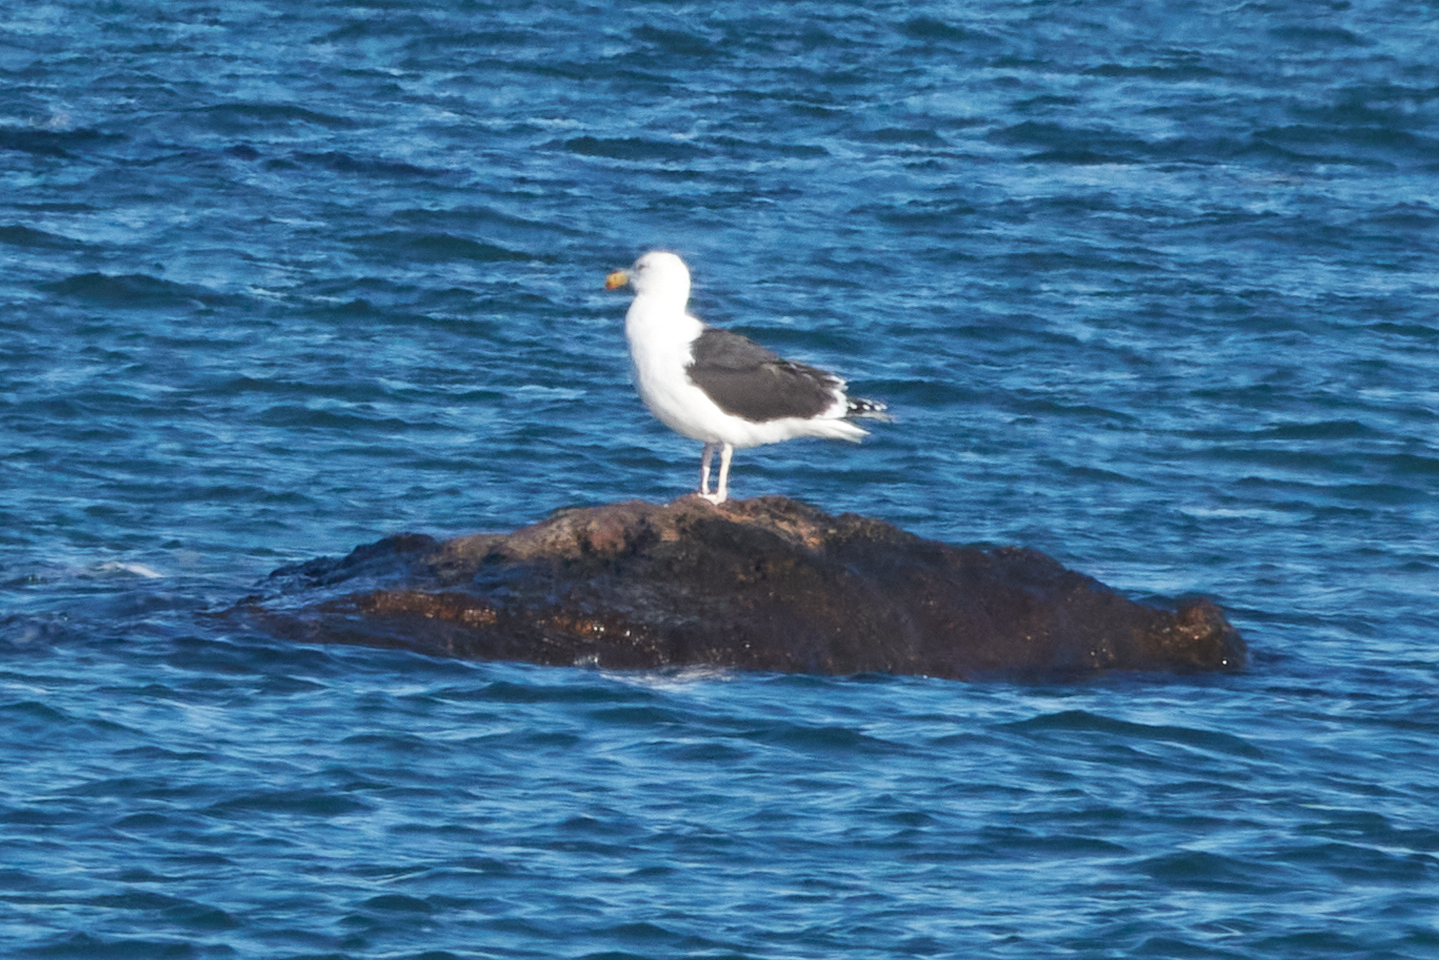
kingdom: Animalia
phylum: Chordata
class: Aves
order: Charadriiformes
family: Laridae
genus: Larus
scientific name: Larus marinus
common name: Great black-backed gull
